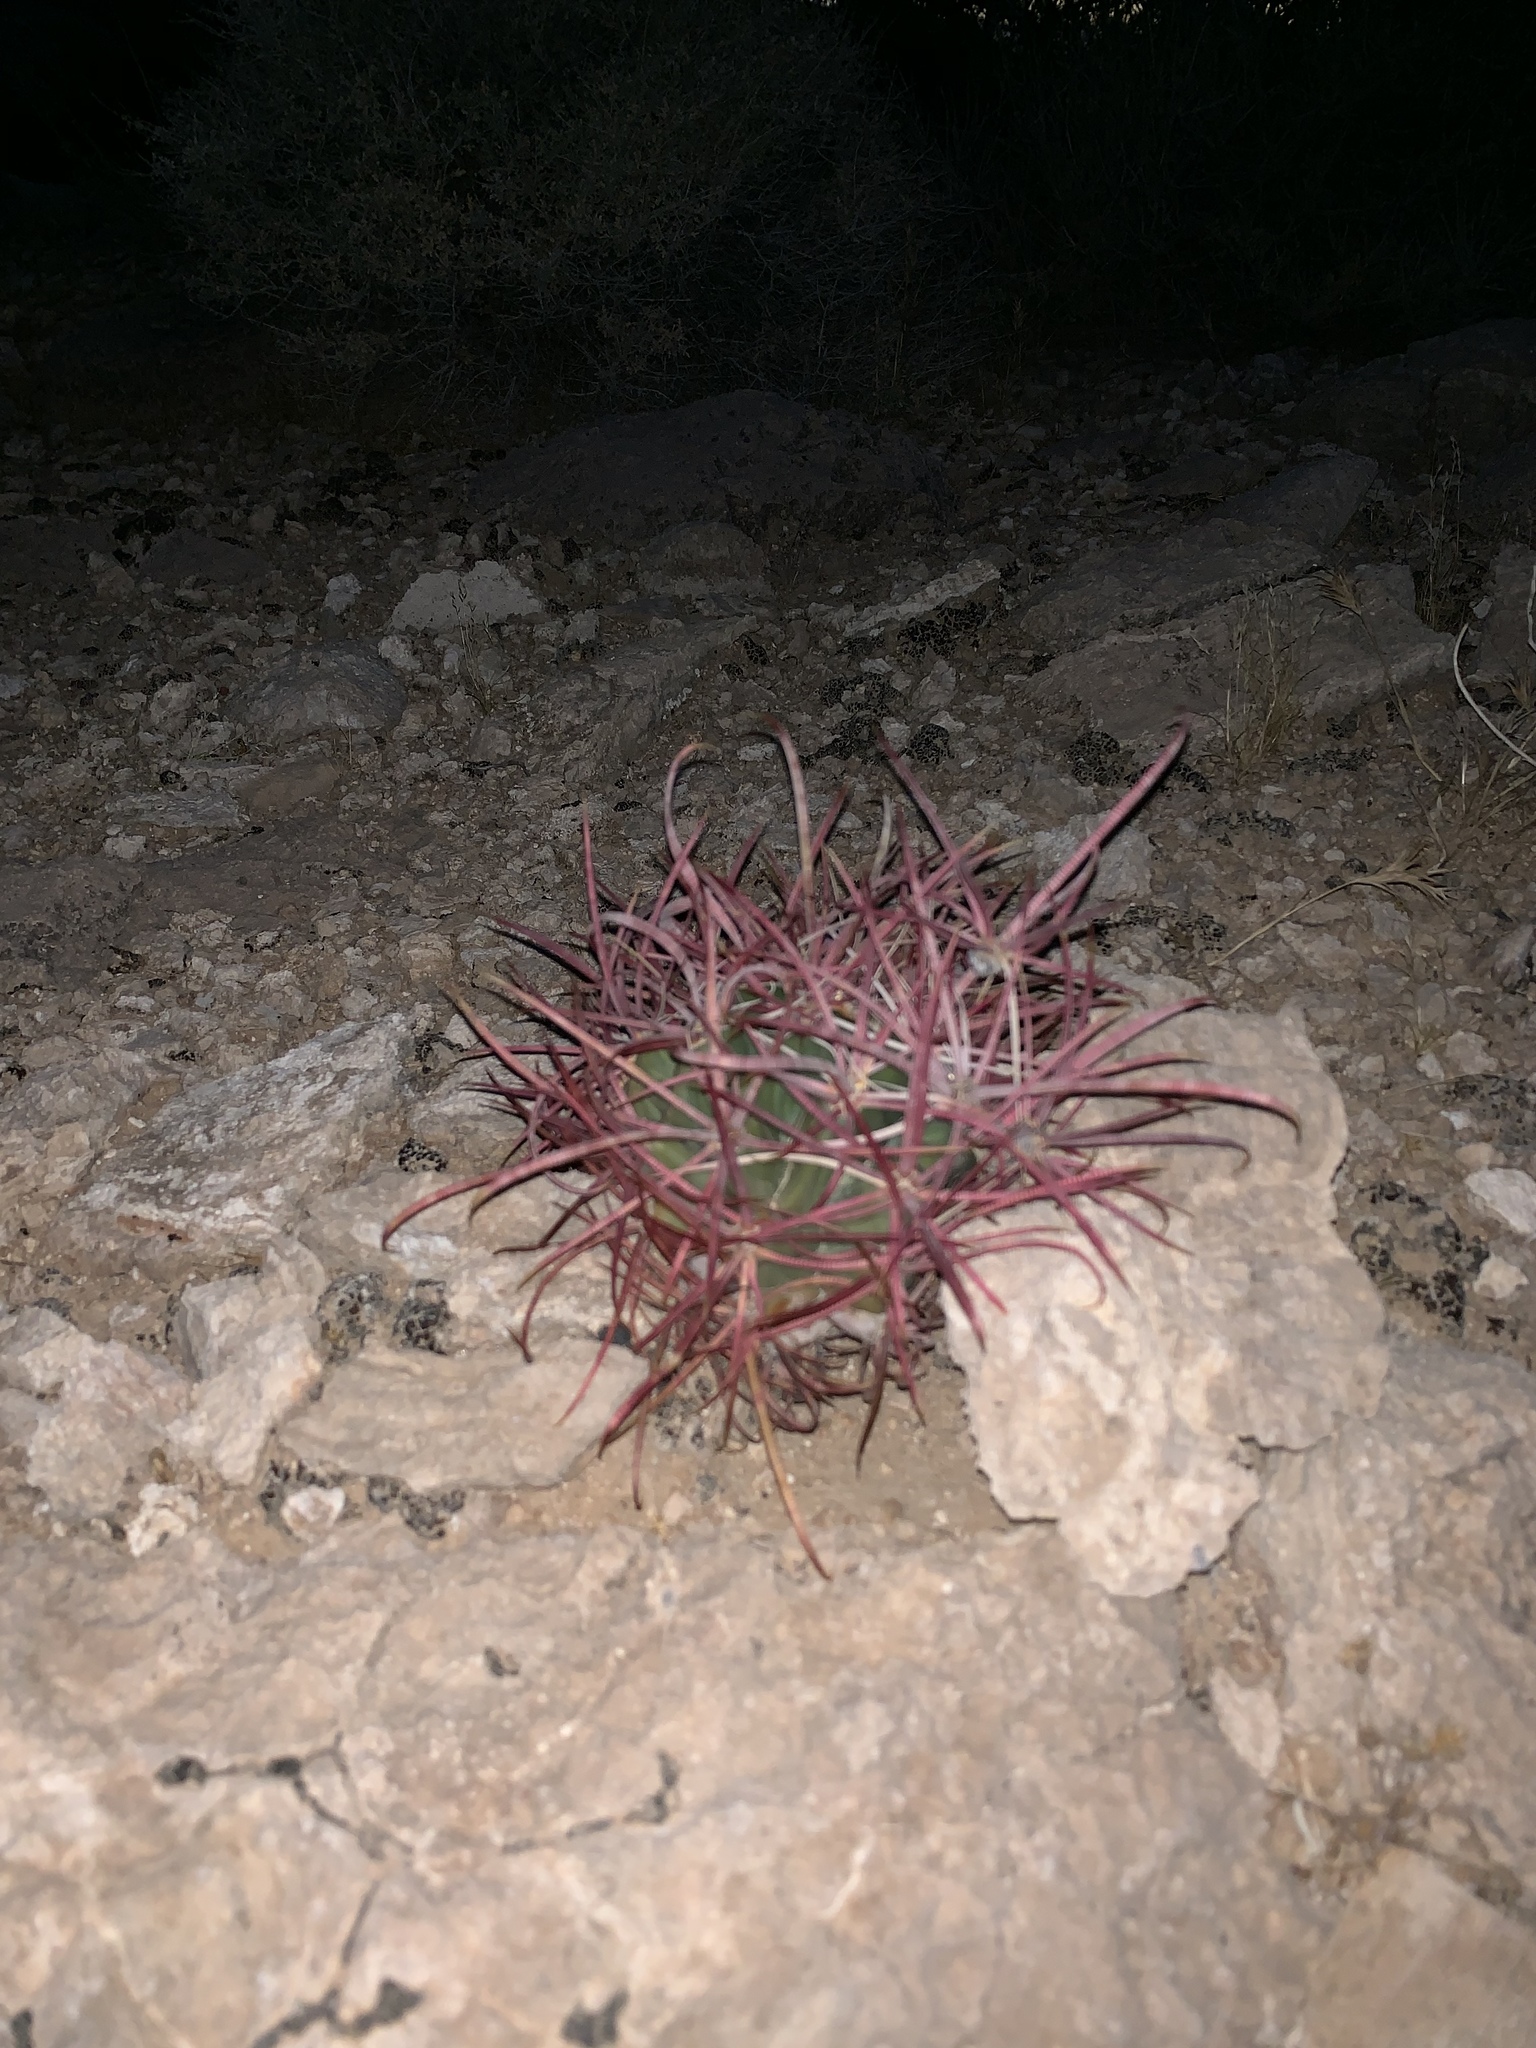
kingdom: Plantae
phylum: Tracheophyta
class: Magnoliopsida
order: Caryophyllales
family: Cactaceae
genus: Ferocactus
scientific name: Ferocactus cylindraceus
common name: California barrel cactus
